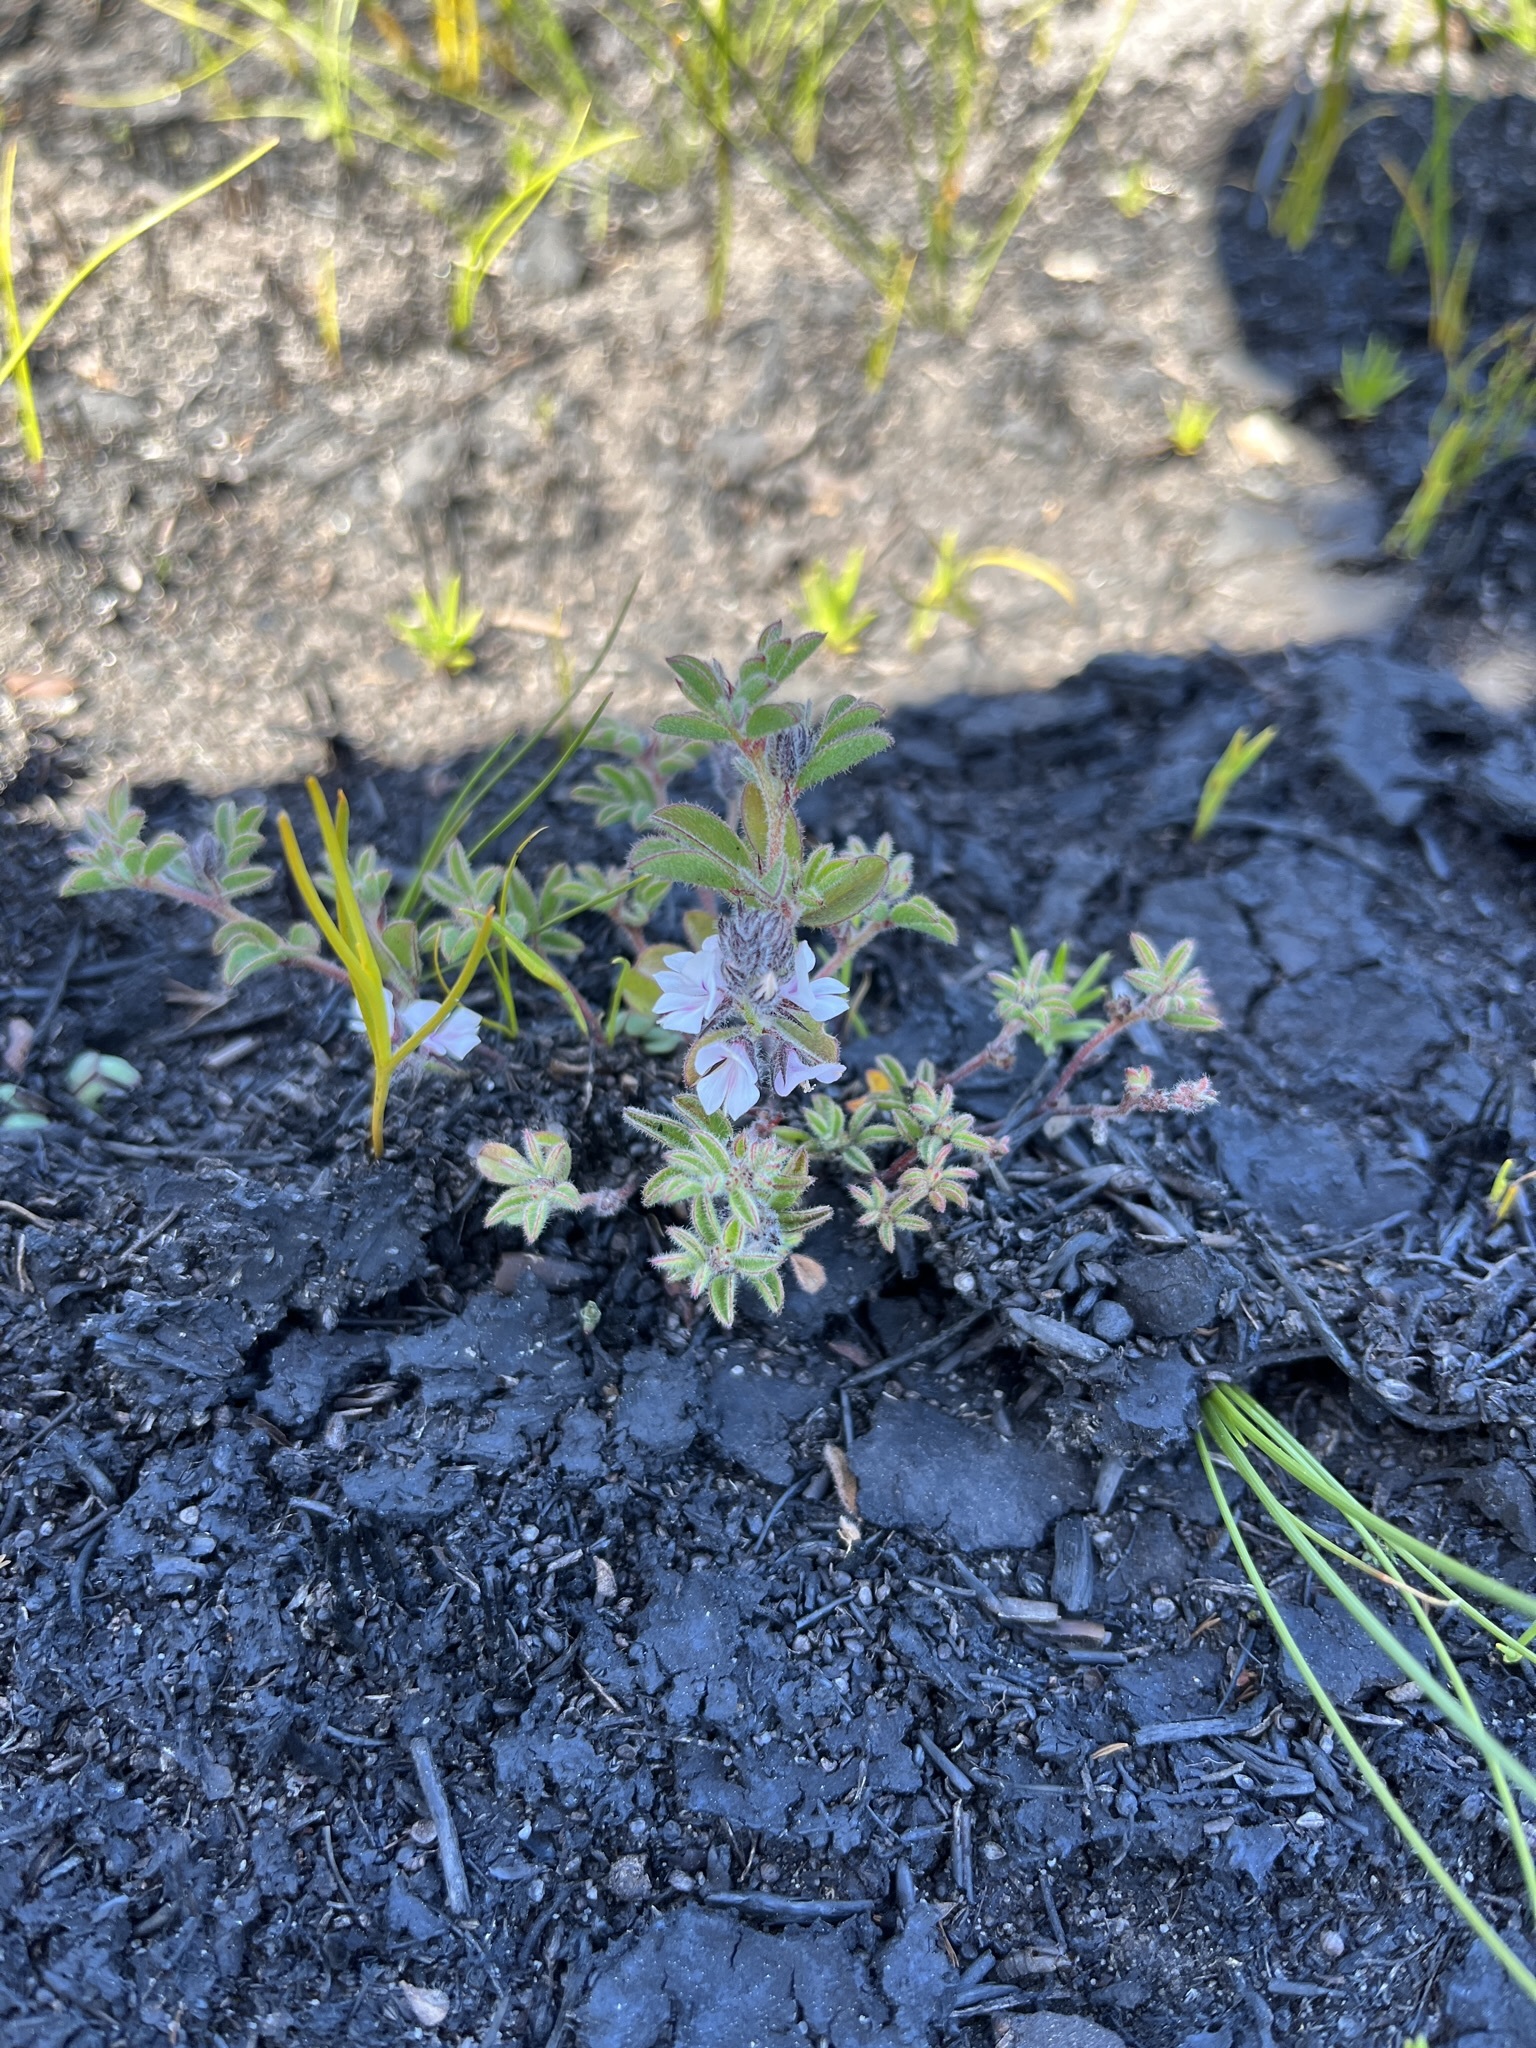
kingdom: Plantae
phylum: Tracheophyta
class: Magnoliopsida
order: Fabales
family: Fabaceae
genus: Indigofera
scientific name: Indigofera
